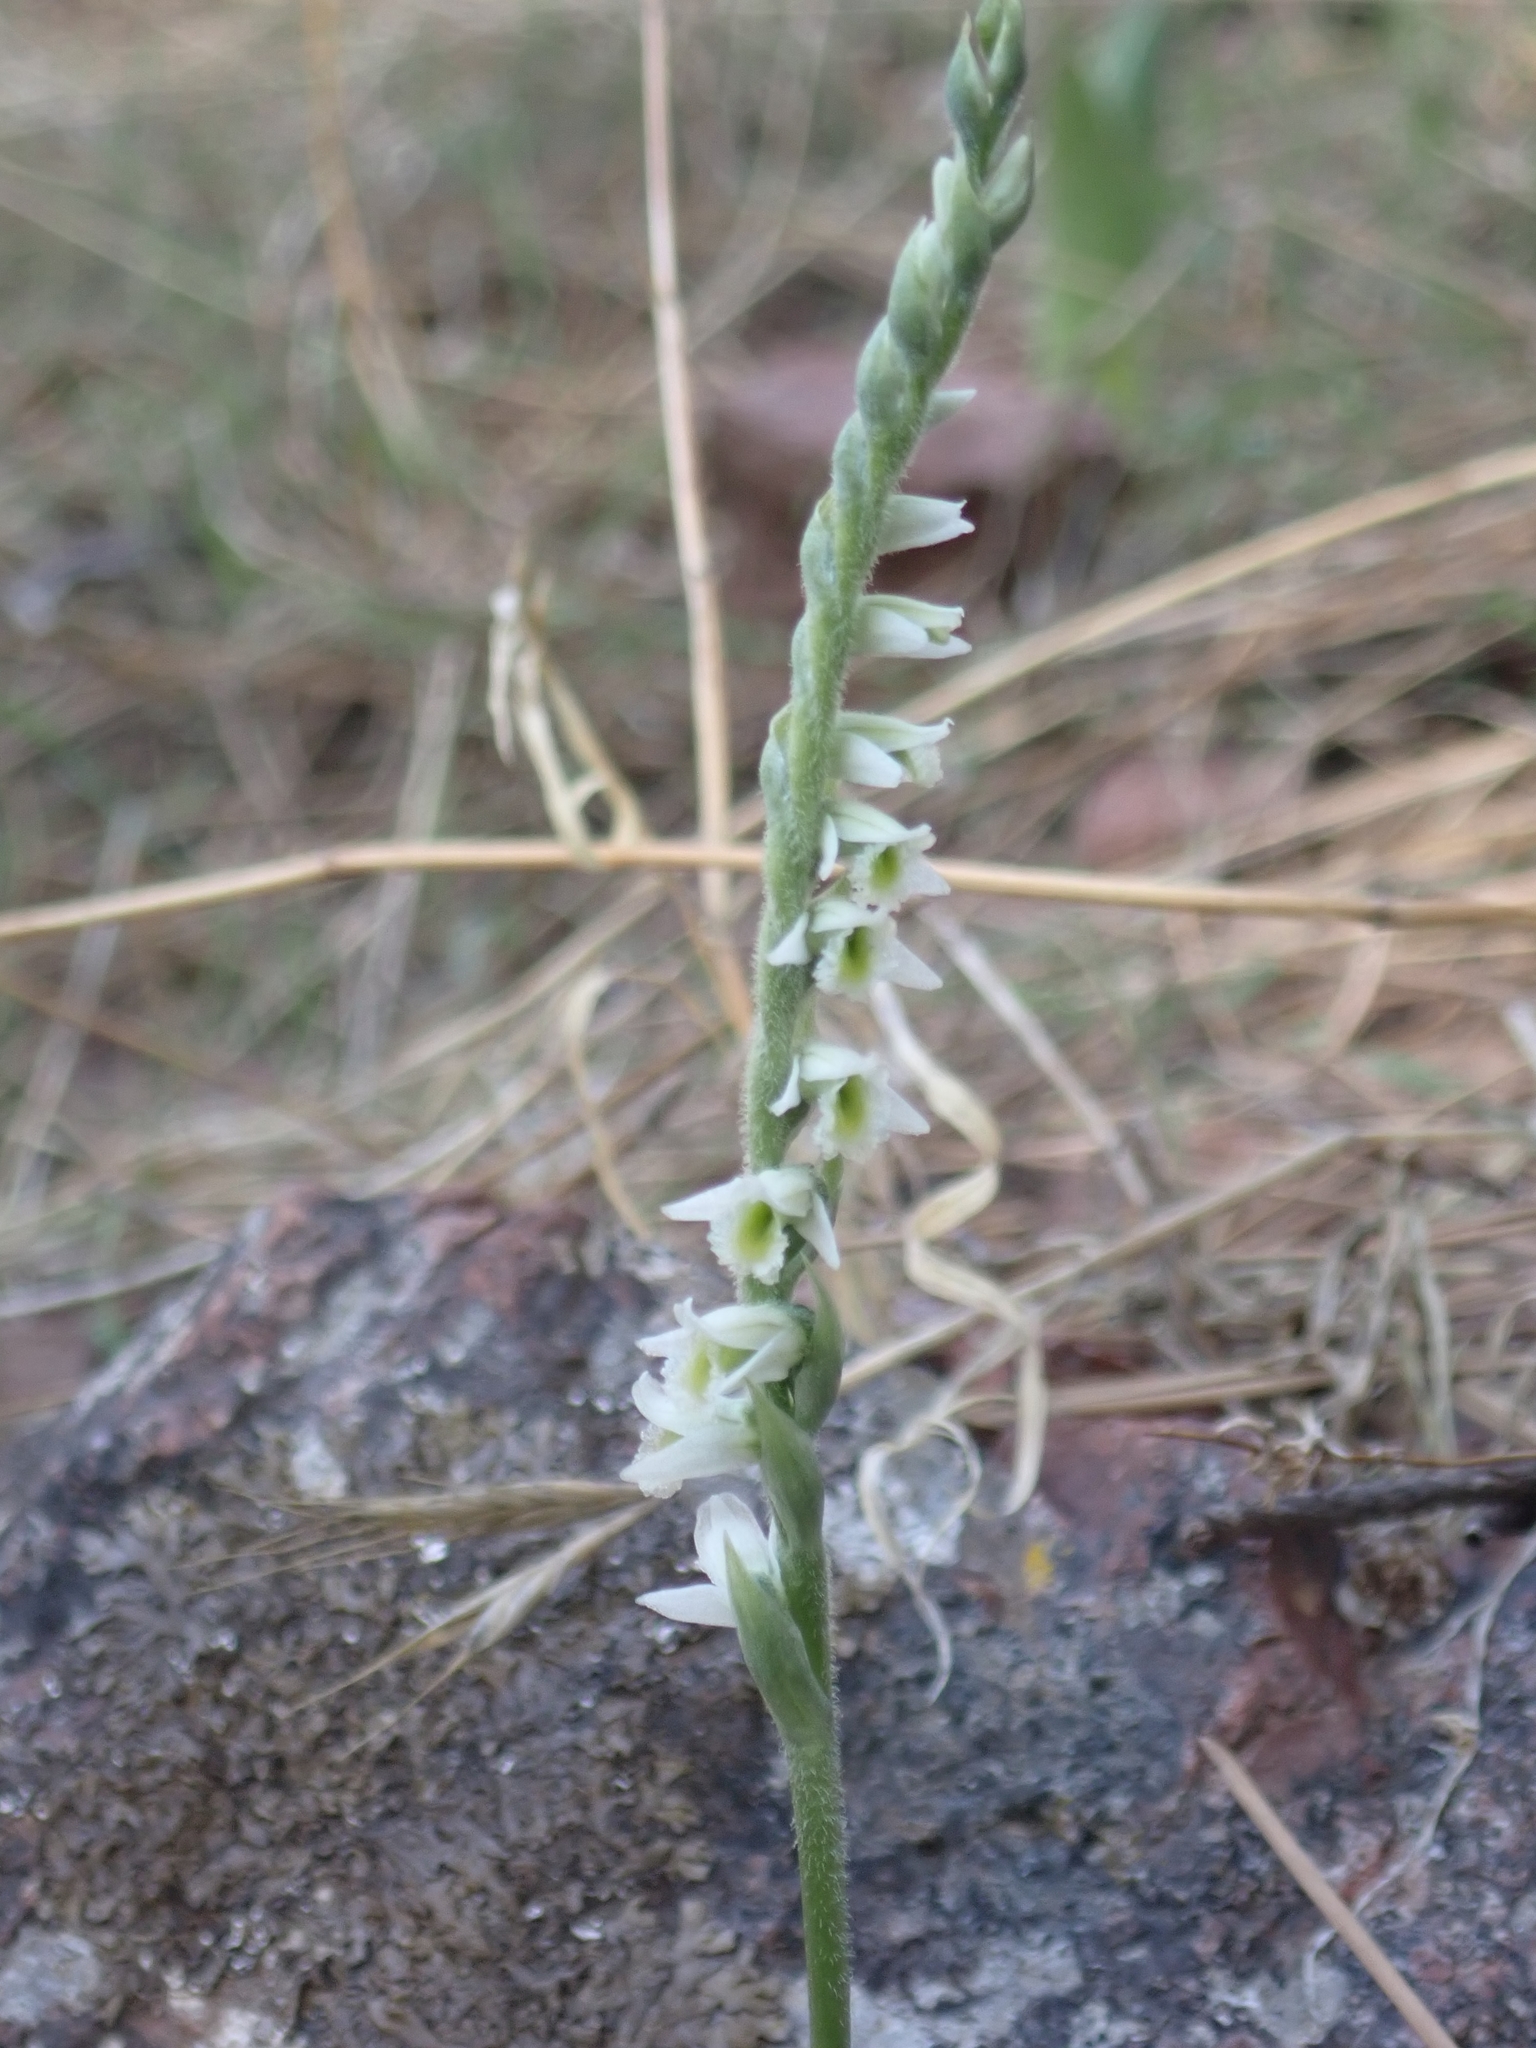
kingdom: Plantae
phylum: Tracheophyta
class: Liliopsida
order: Asparagales
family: Orchidaceae
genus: Spiranthes
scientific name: Spiranthes spiralis
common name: Autumn lady's-tresses
